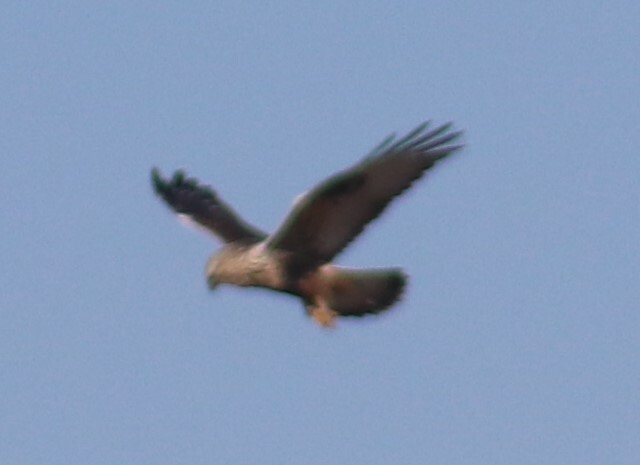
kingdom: Animalia
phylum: Chordata
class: Aves
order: Accipitriformes
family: Accipitridae
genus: Buteo
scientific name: Buteo lagopus
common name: Rough-legged buzzard
